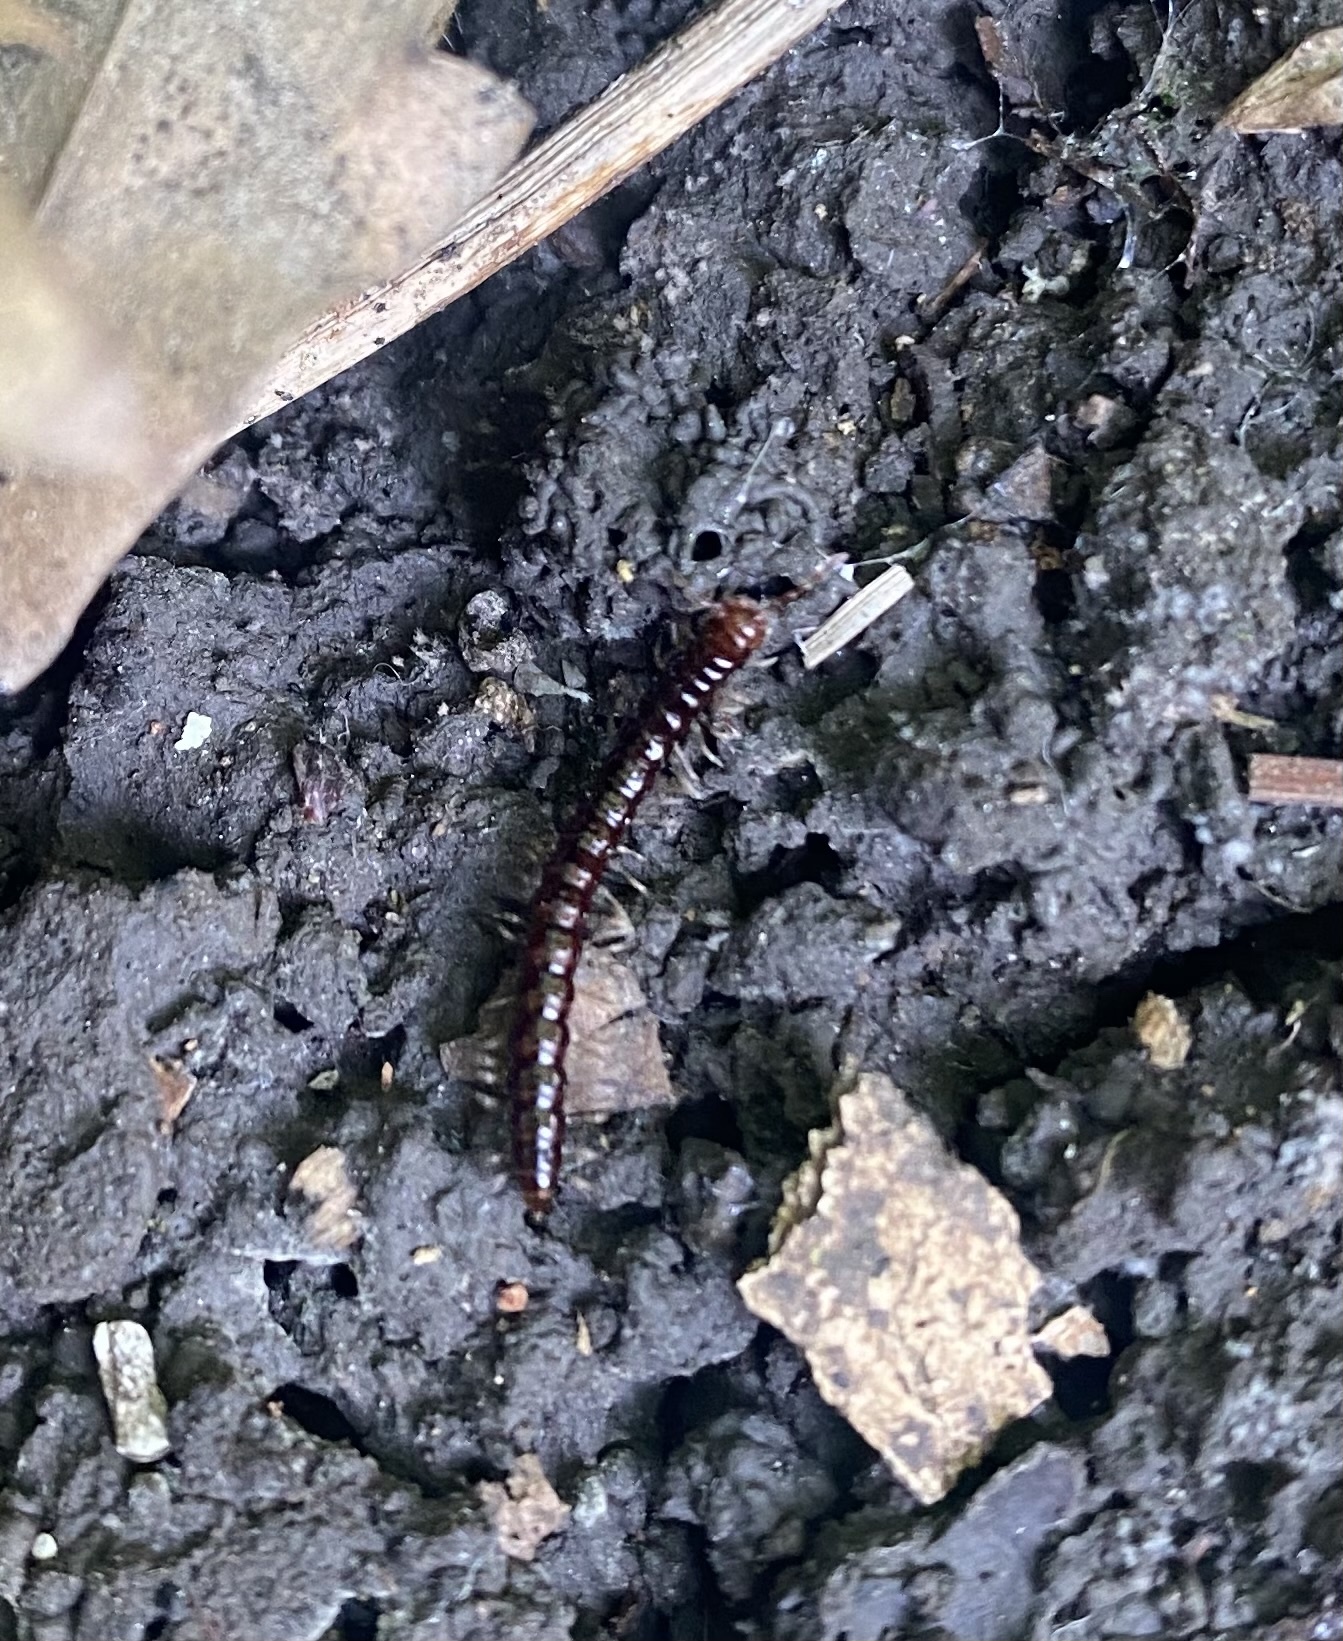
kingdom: Animalia
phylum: Arthropoda
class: Diplopoda
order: Polydesmida
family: Paradoxosomatidae
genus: Strongylosoma
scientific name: Strongylosoma kordylamythrum
